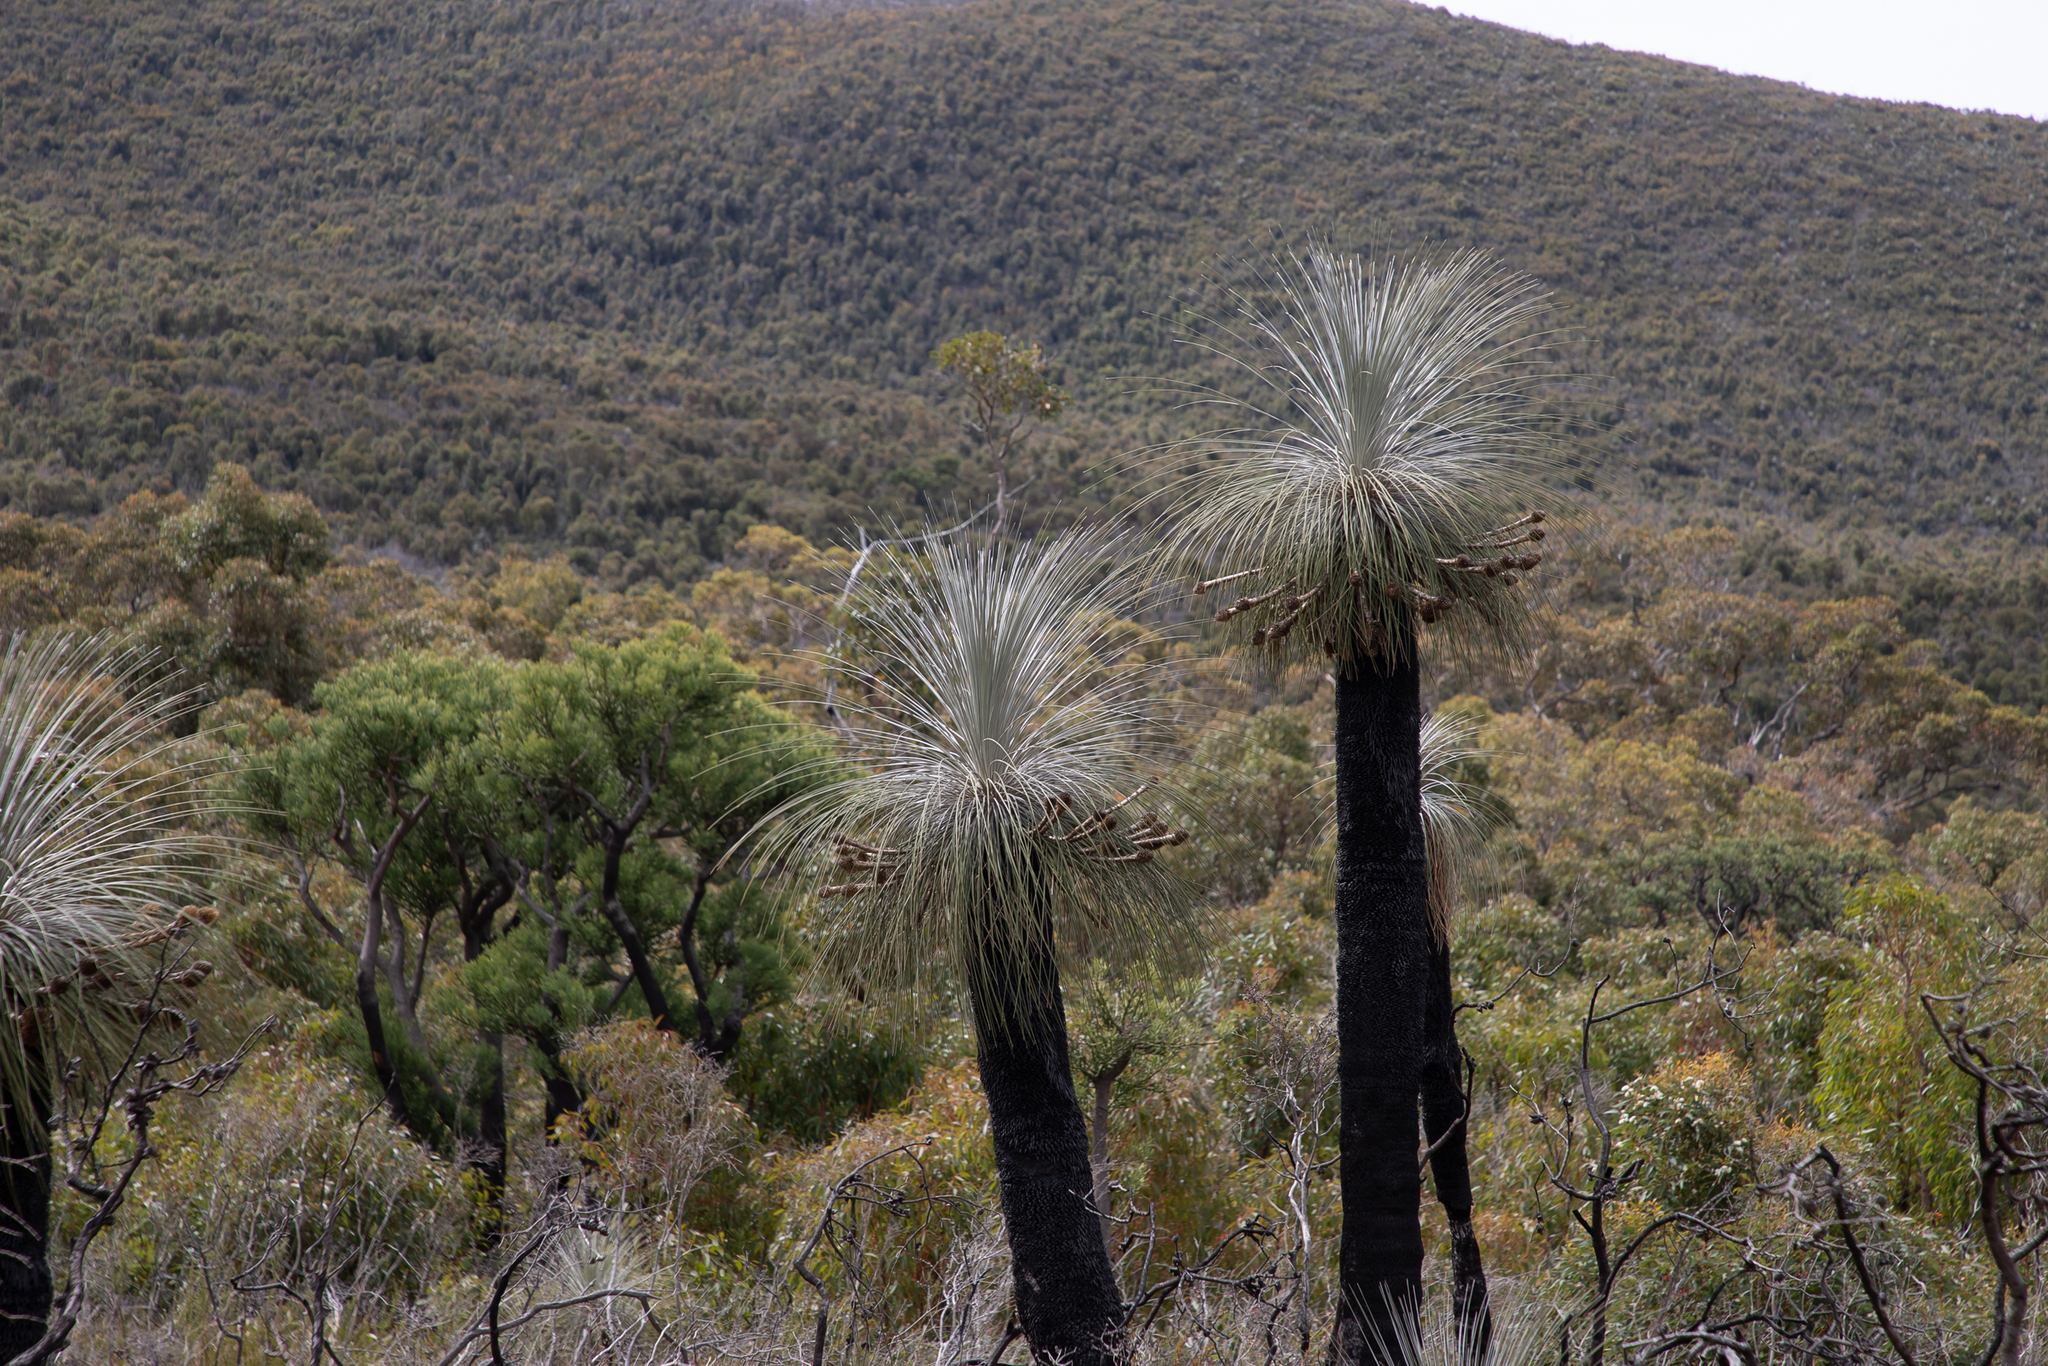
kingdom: Plantae
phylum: Tracheophyta
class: Liliopsida
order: Arecales
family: Dasypogonaceae
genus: Kingia
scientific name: Kingia australis
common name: Black gin
